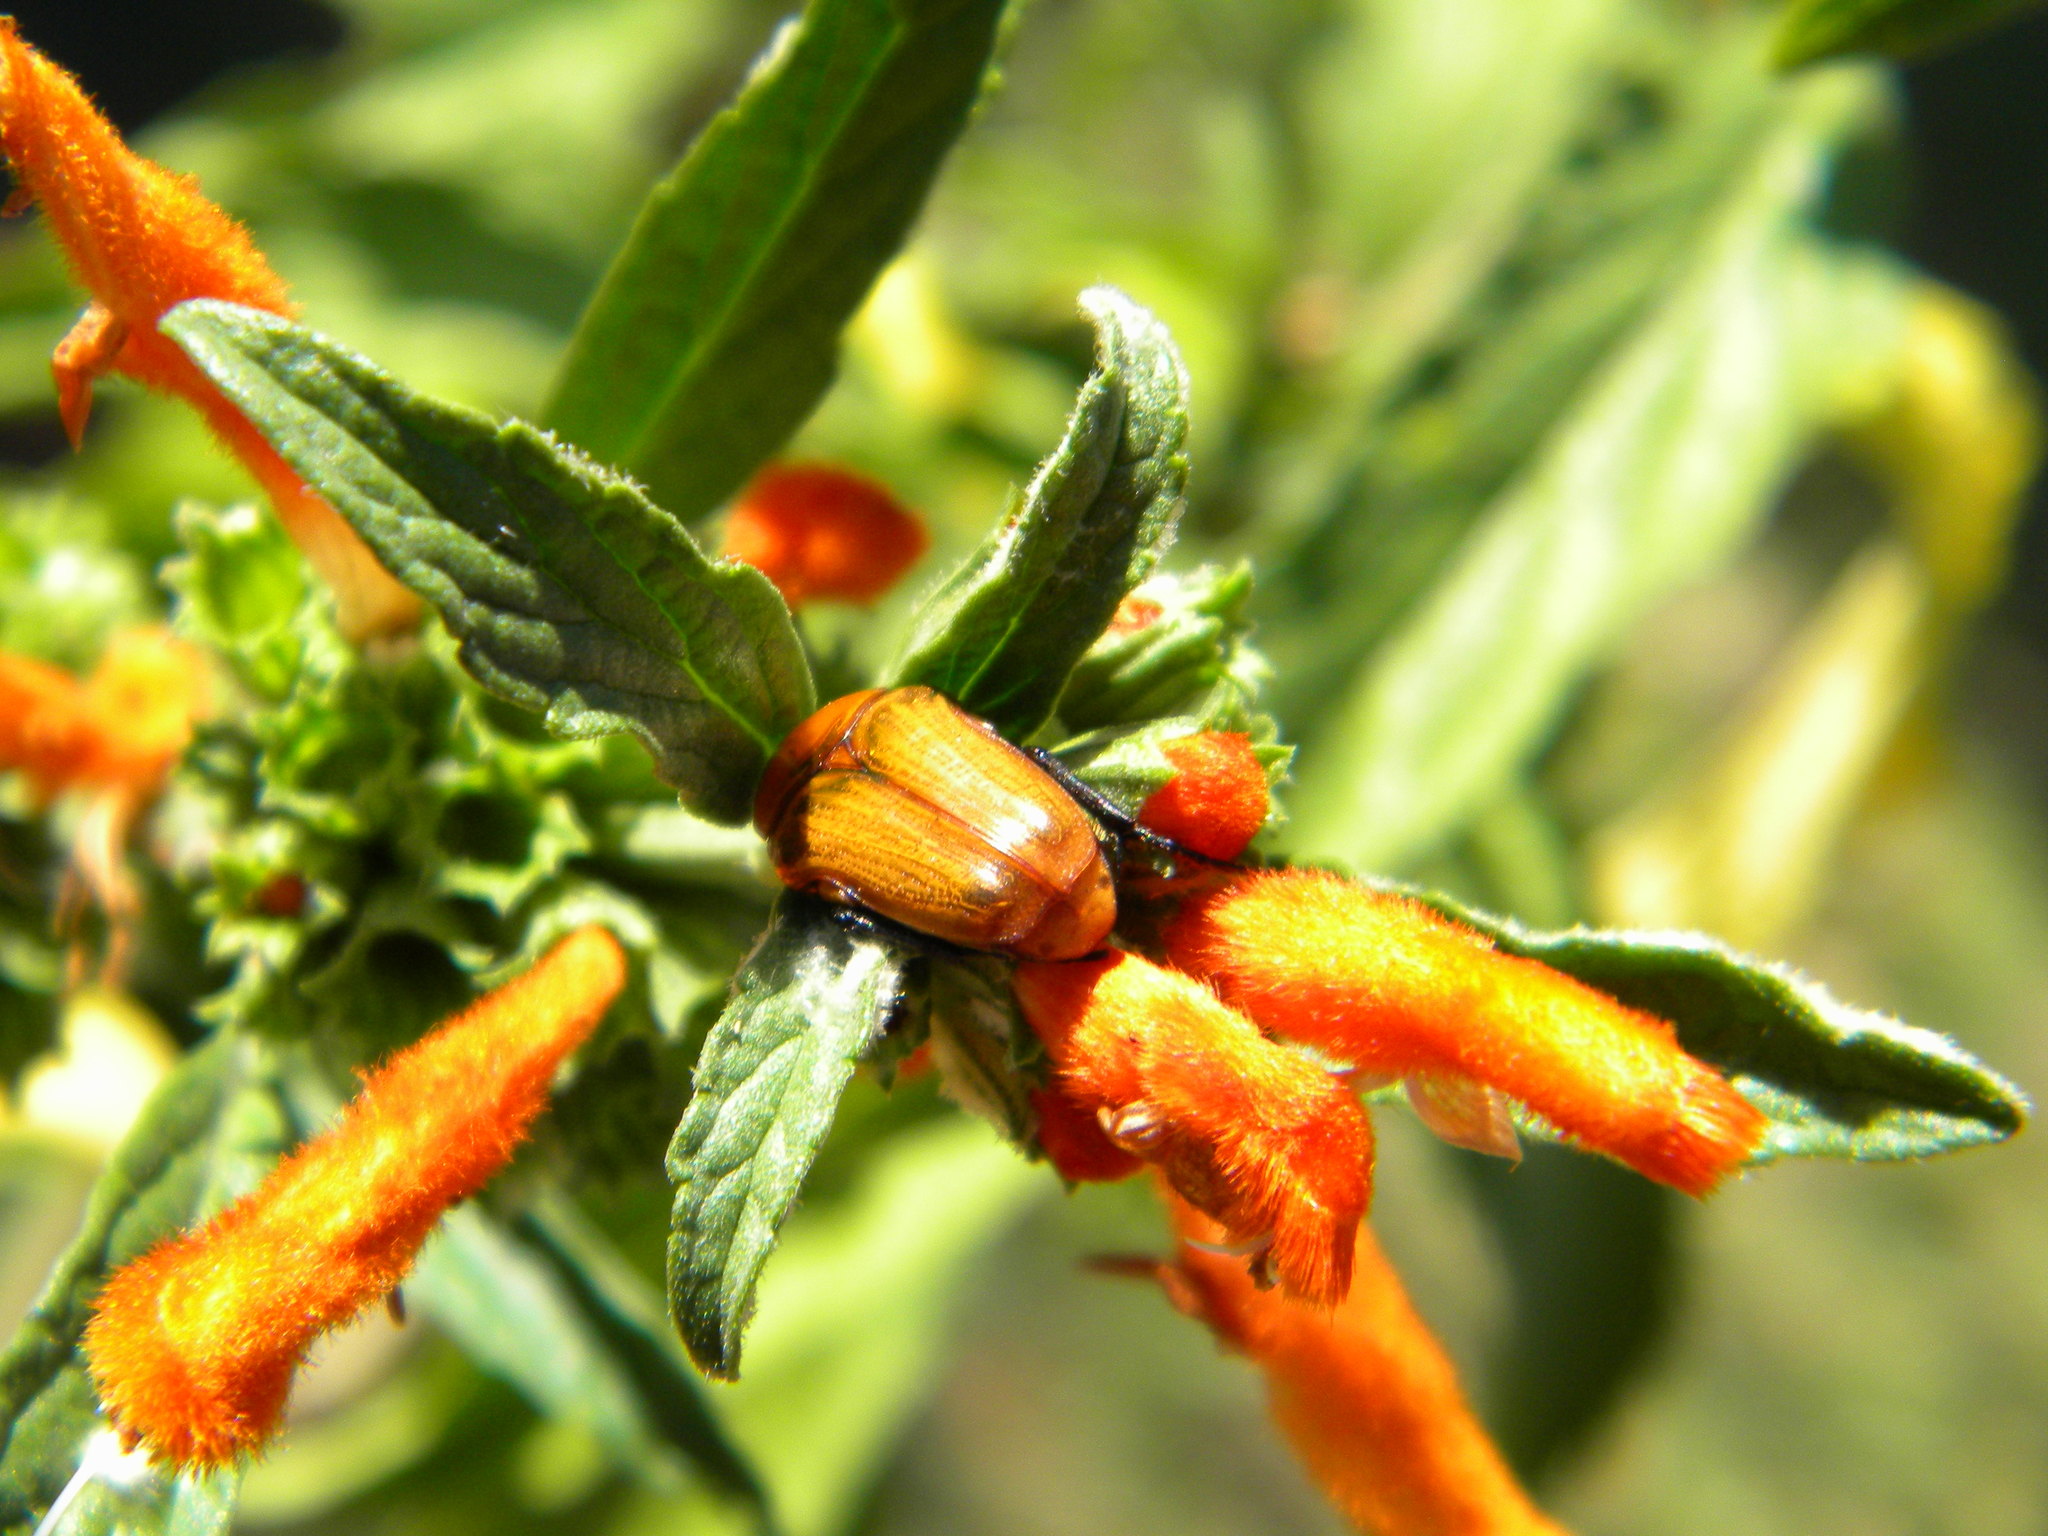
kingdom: Animalia
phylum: Arthropoda
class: Insecta
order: Coleoptera
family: Scarabaeidae
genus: Leucocelis
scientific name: Leucocelis rubra
